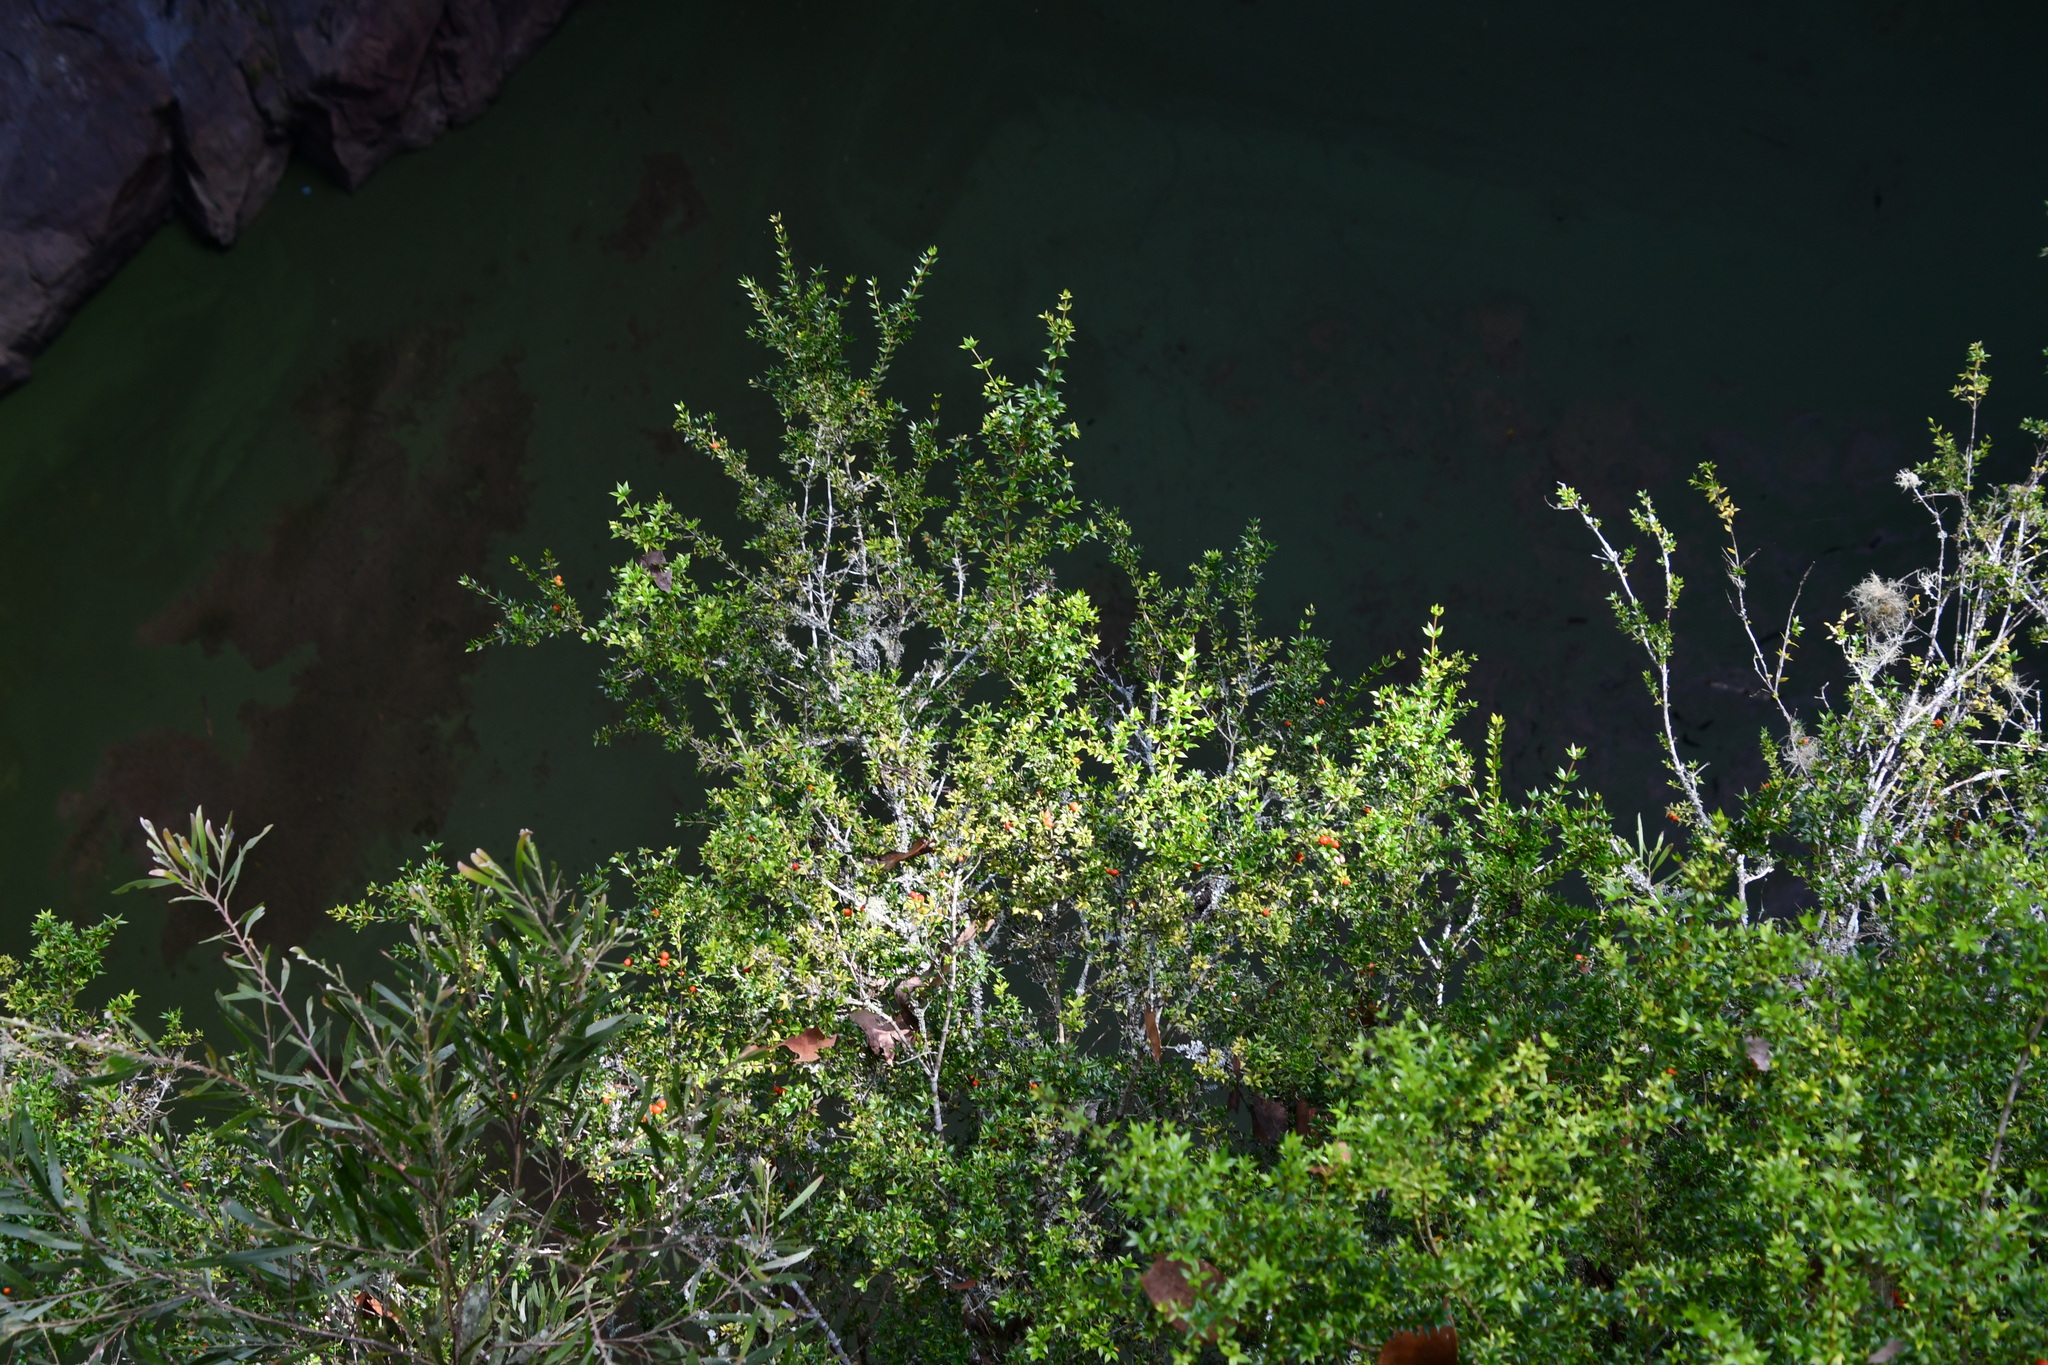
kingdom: Plantae
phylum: Tracheophyta
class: Magnoliopsida
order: Gentianales
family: Apocynaceae
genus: Alyxia
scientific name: Alyxia ruscifolia
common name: Chainfruit
